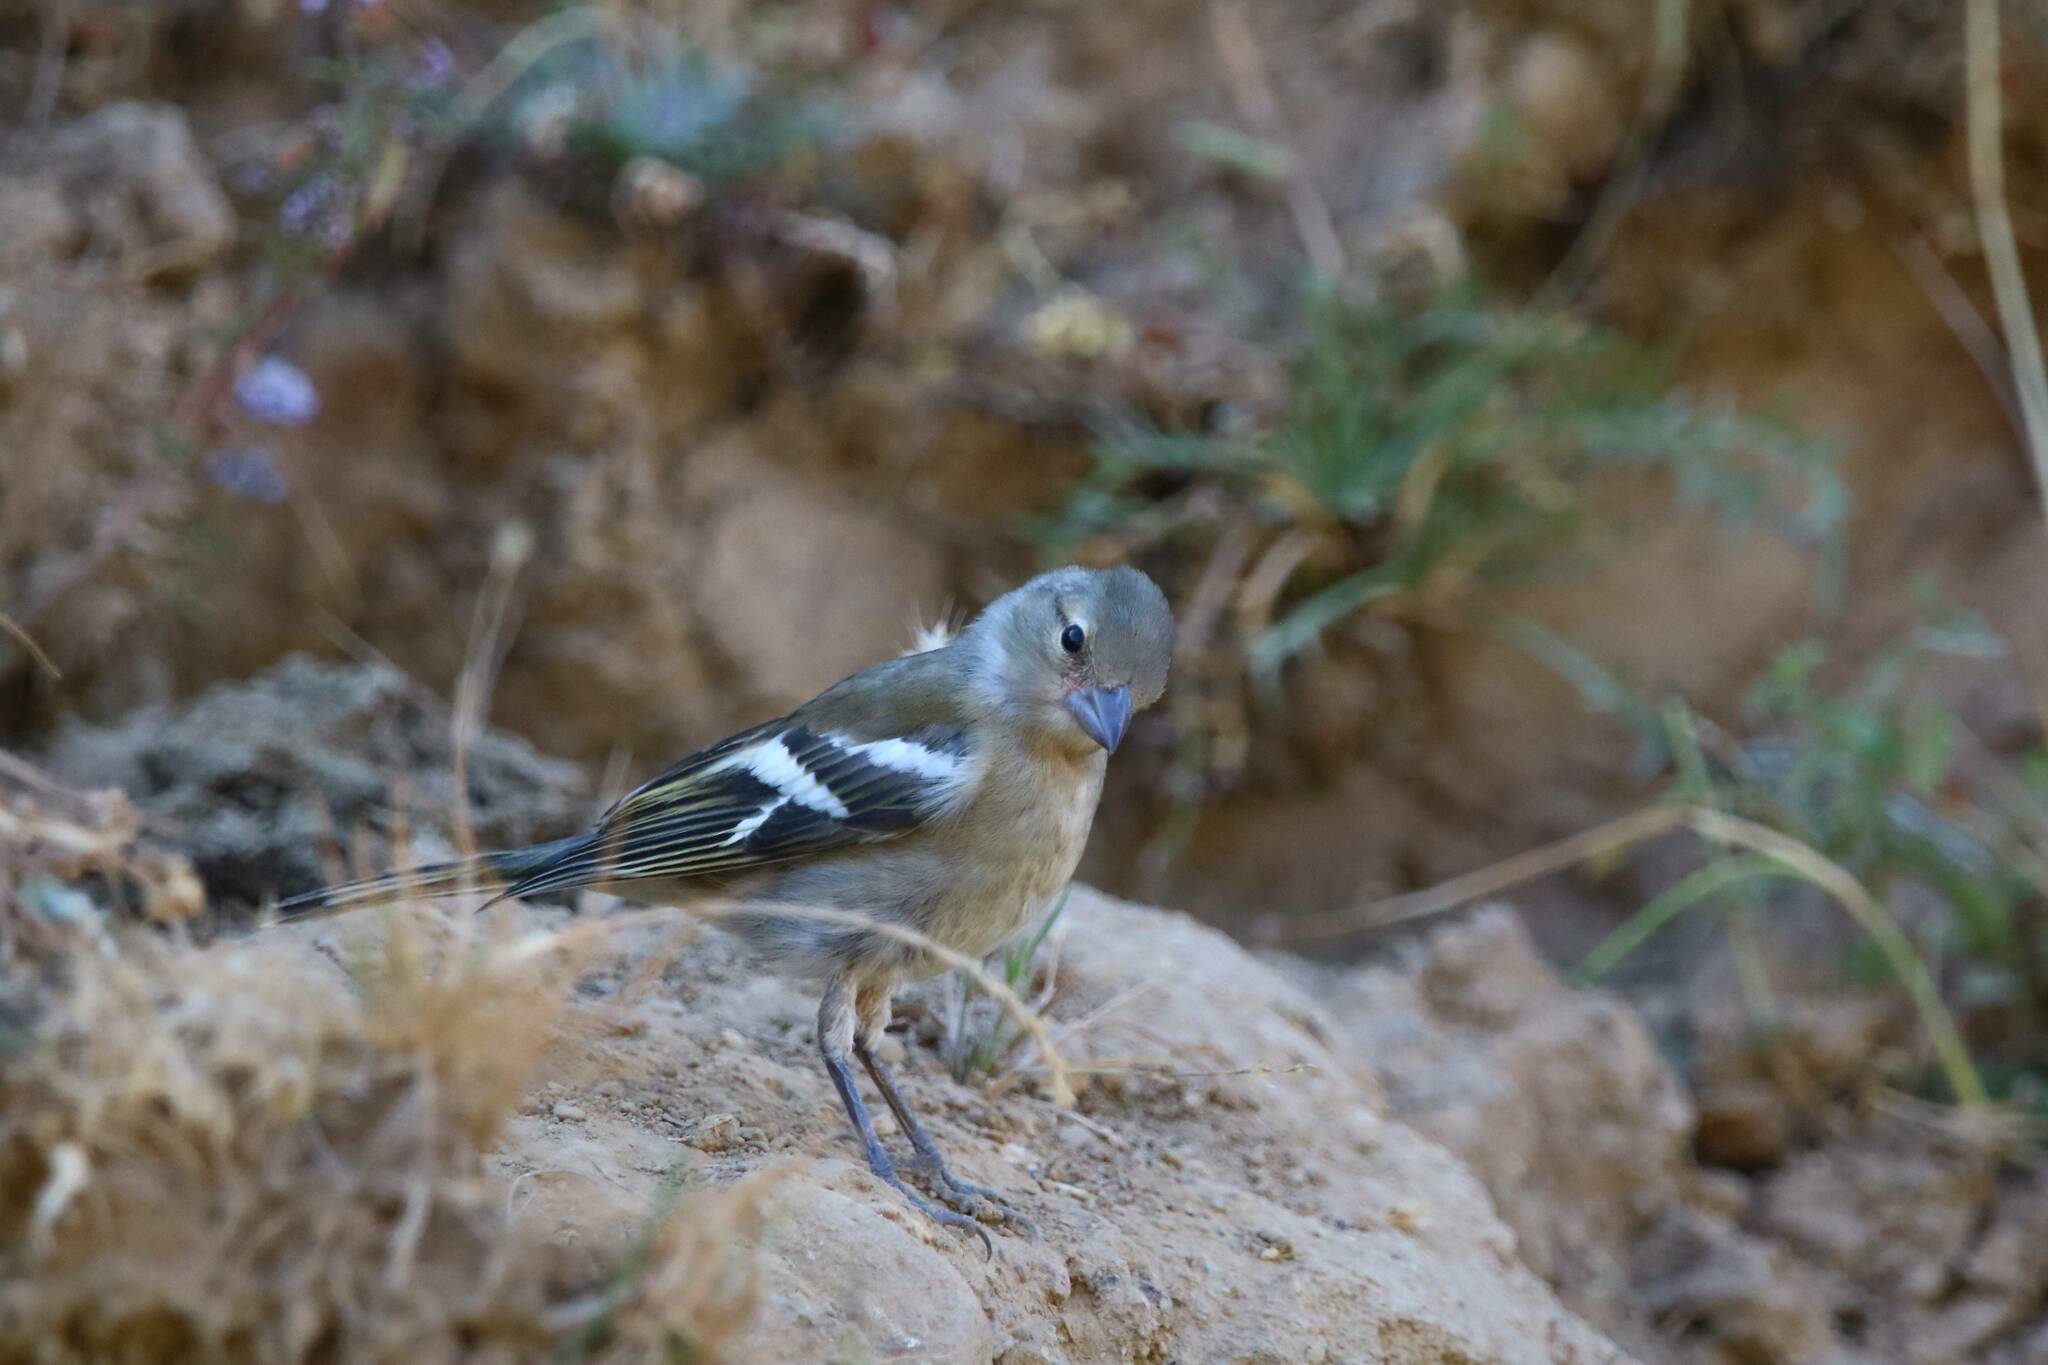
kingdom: Animalia
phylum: Chordata
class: Aves
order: Passeriformes
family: Fringillidae
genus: Fringilla
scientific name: Fringilla spodiogenys
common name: African chaffinch
